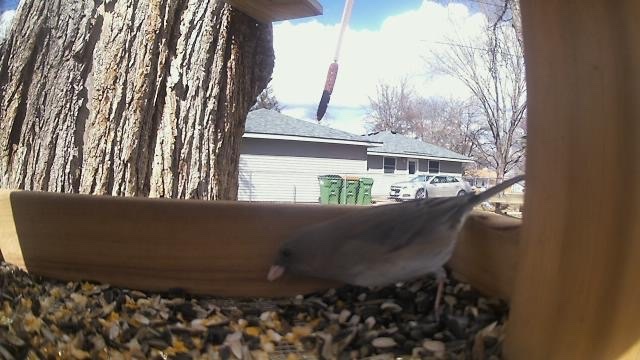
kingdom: Animalia
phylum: Chordata
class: Aves
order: Passeriformes
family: Passerellidae
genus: Junco
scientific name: Junco hyemalis
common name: Dark-eyed junco
